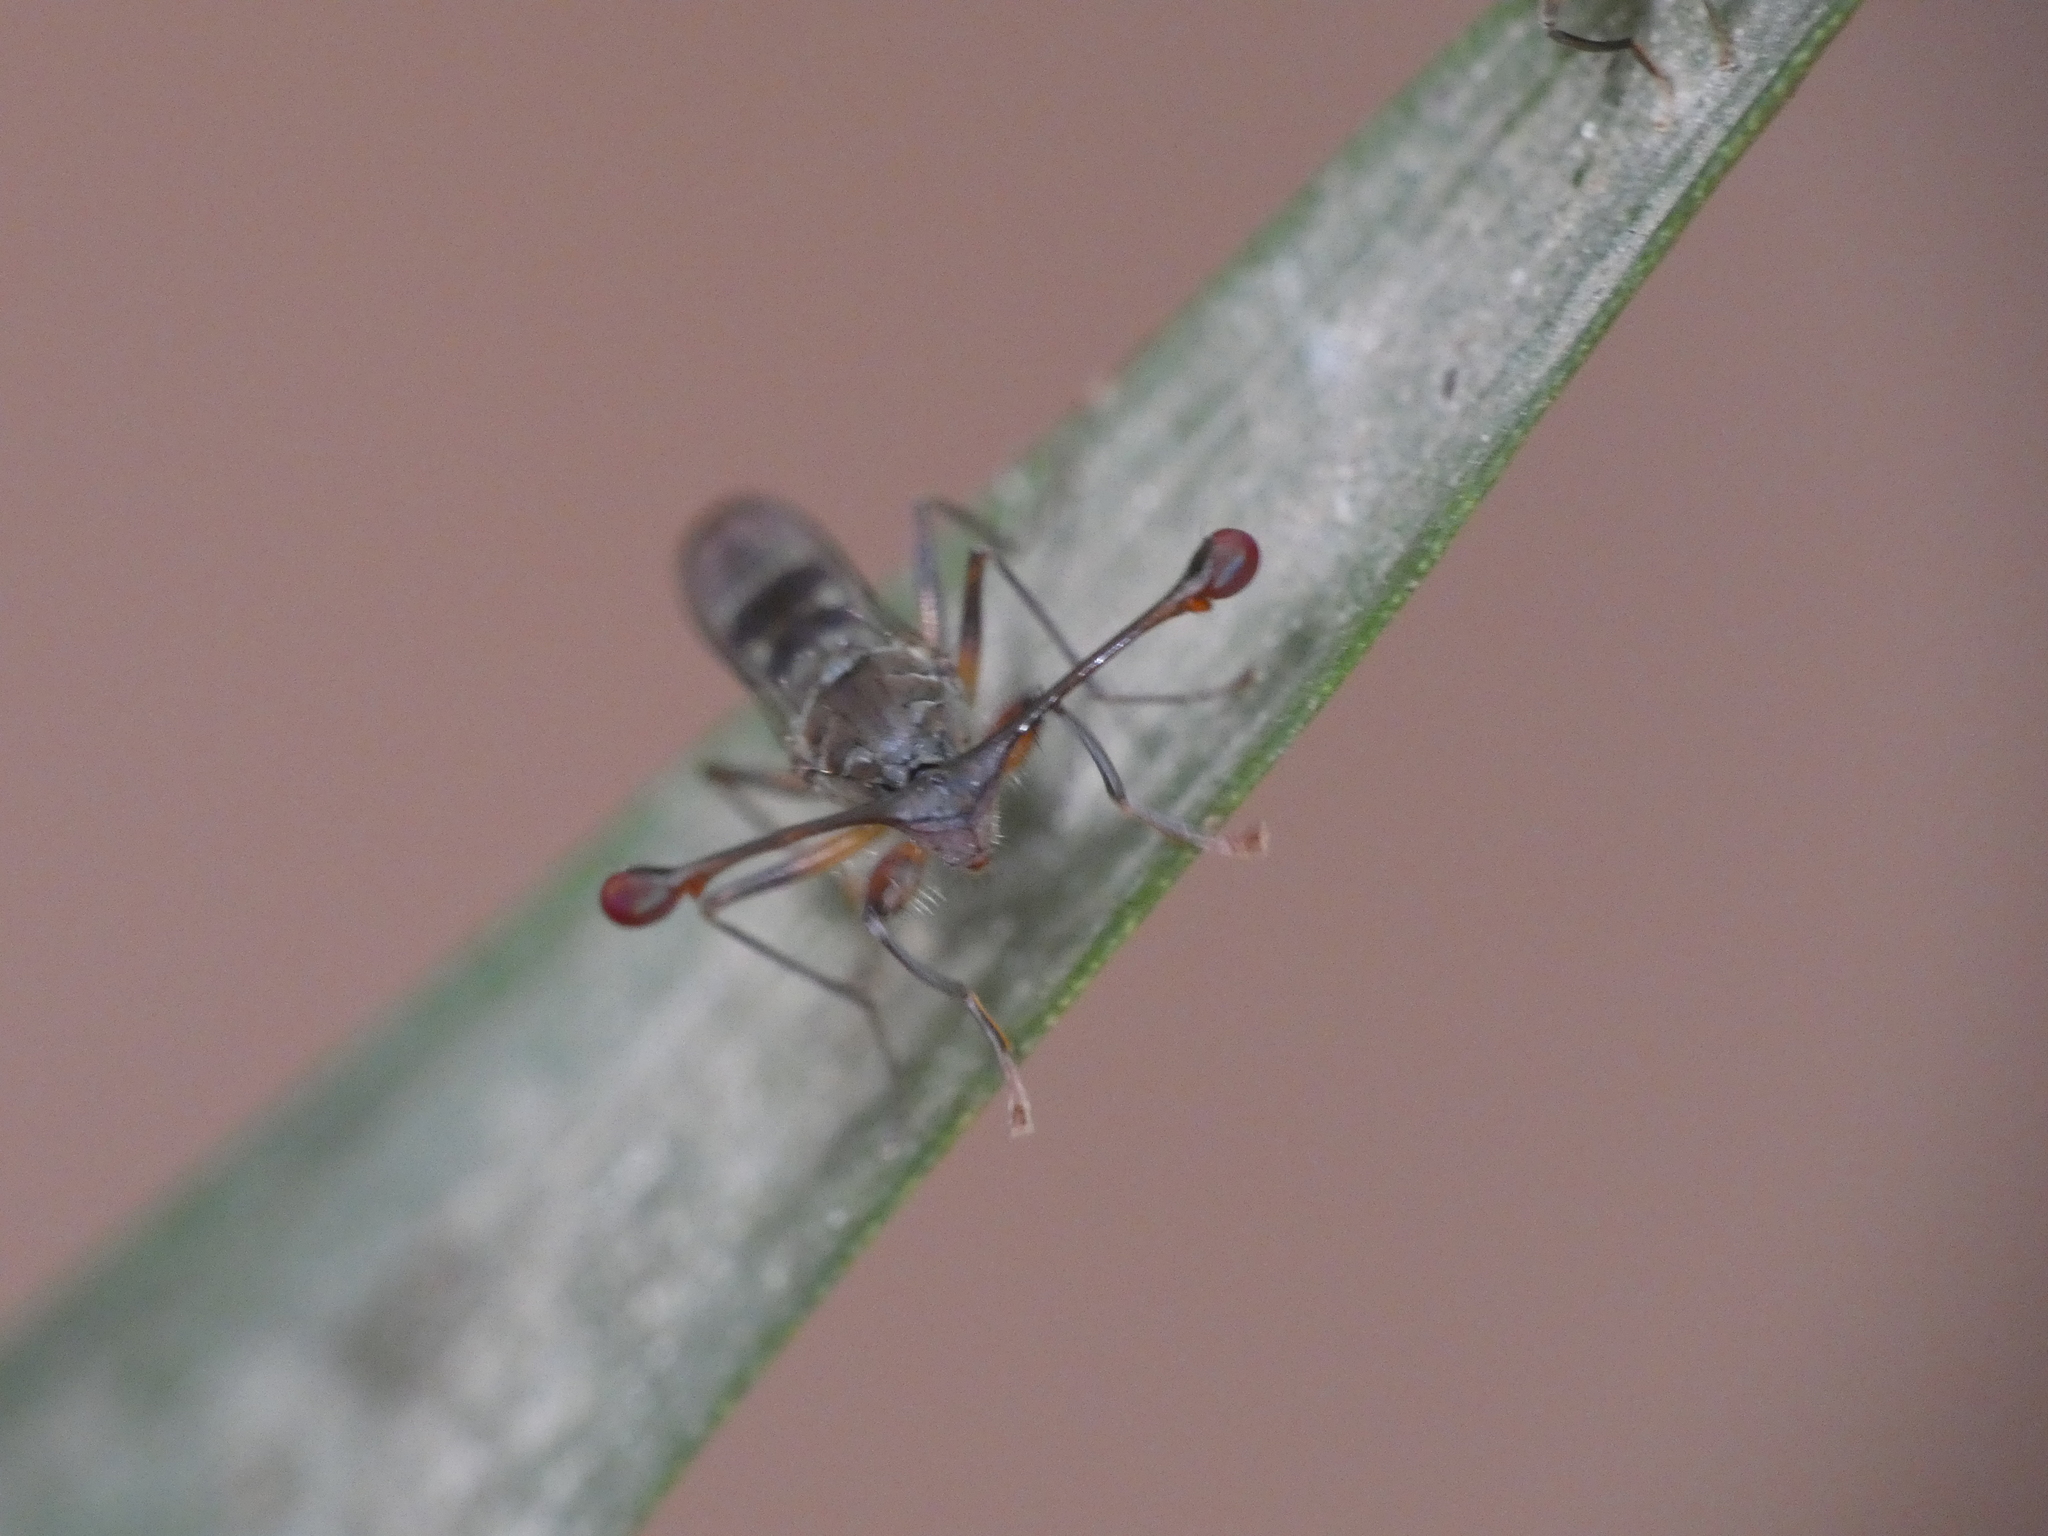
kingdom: Animalia
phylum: Arthropoda
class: Insecta
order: Diptera
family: Diopsidae
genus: Diasemopsis
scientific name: Diasemopsis aethiopica
